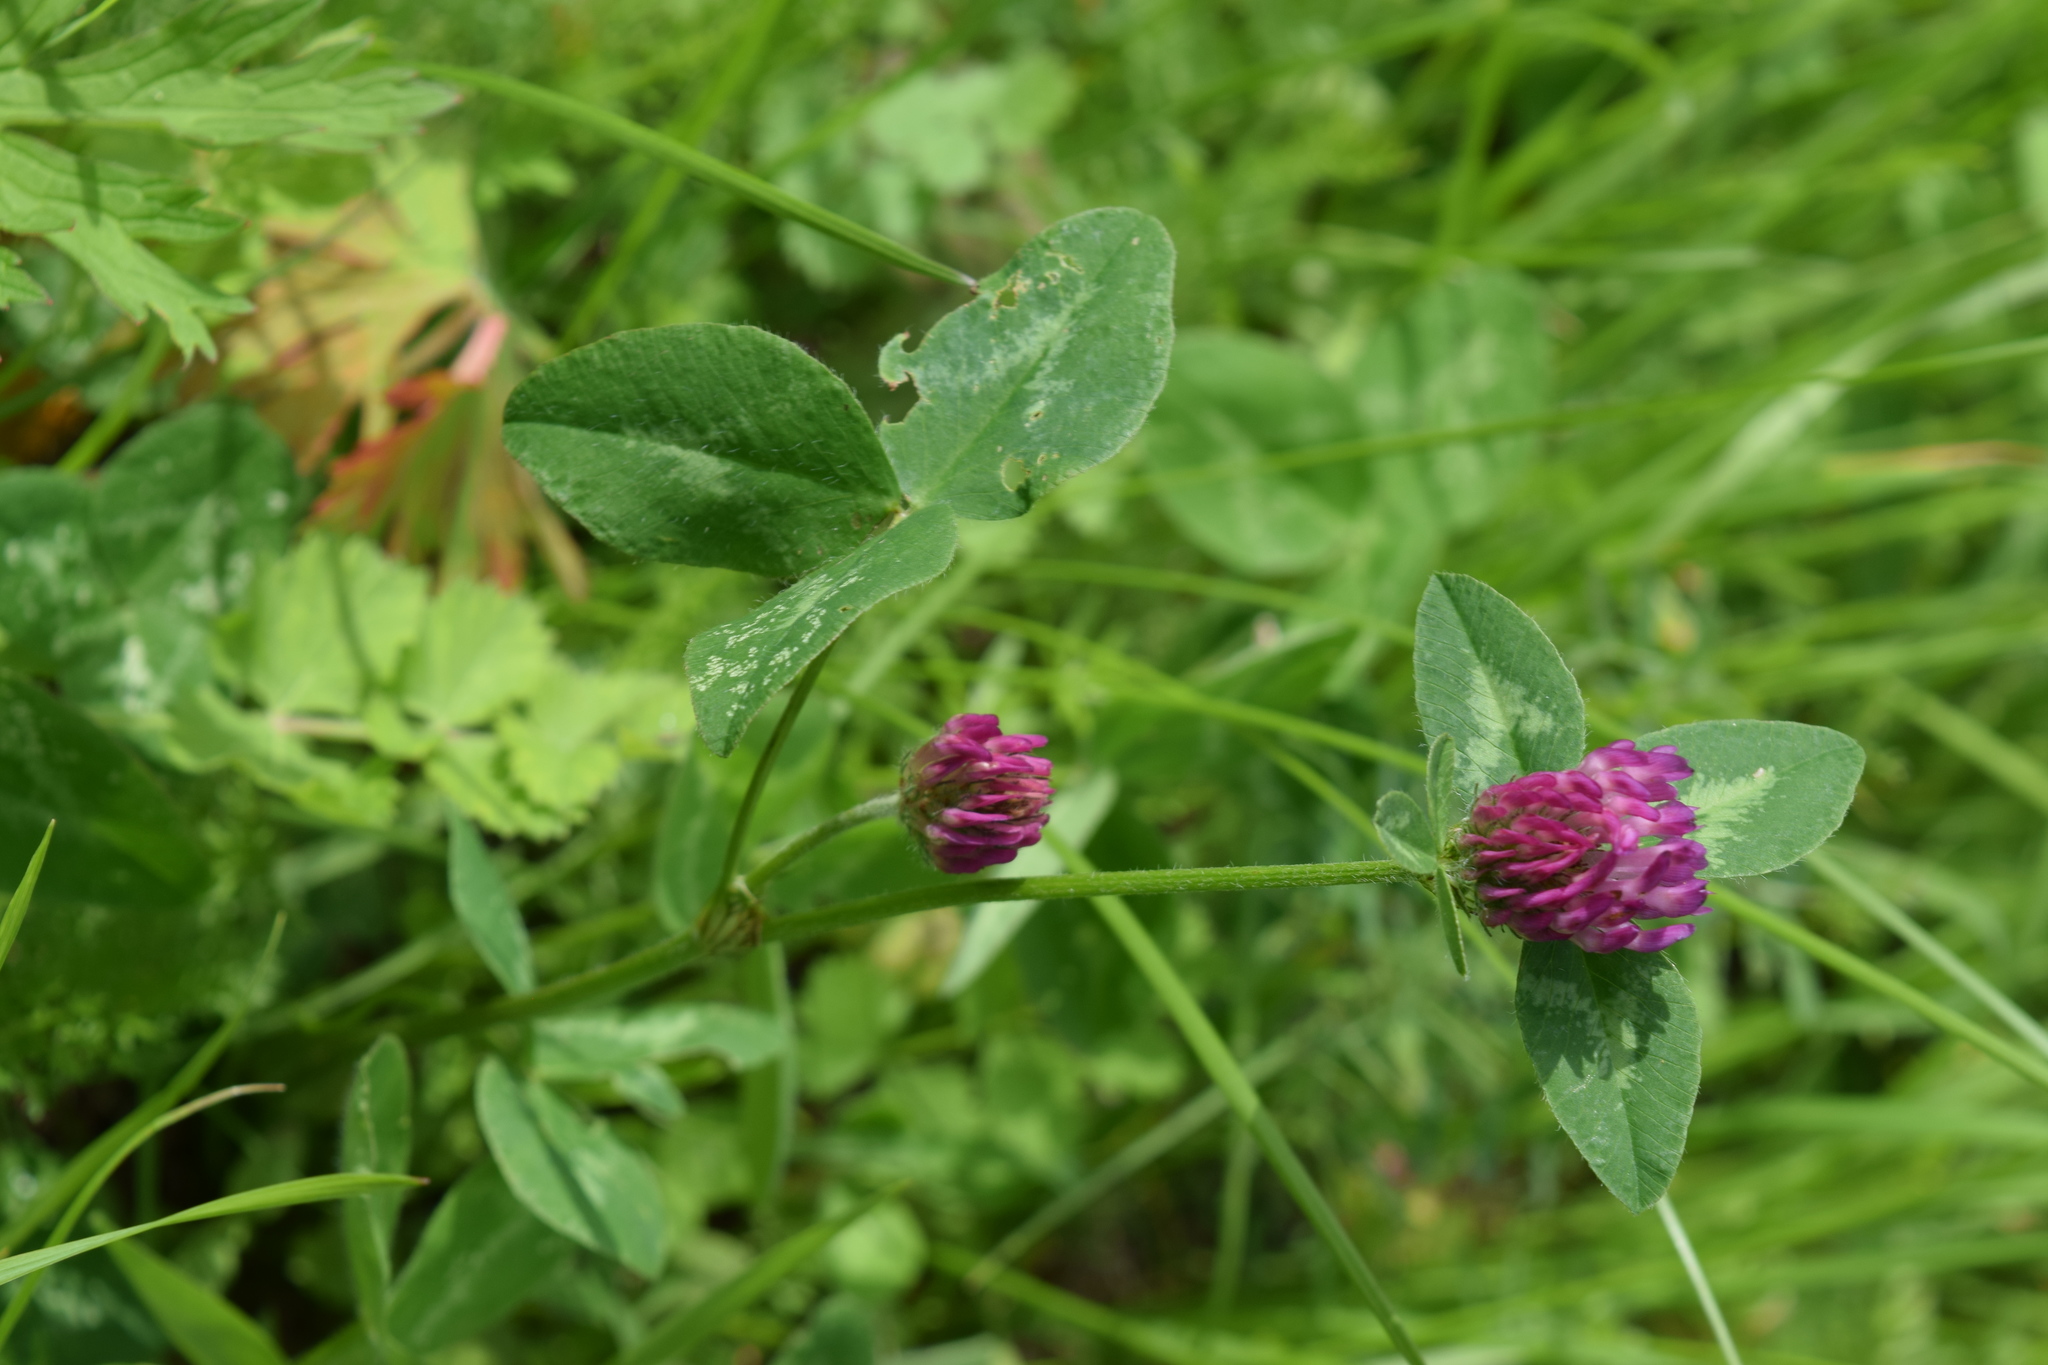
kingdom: Plantae
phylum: Tracheophyta
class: Magnoliopsida
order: Fabales
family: Fabaceae
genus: Trifolium
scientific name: Trifolium pratense
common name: Red clover
